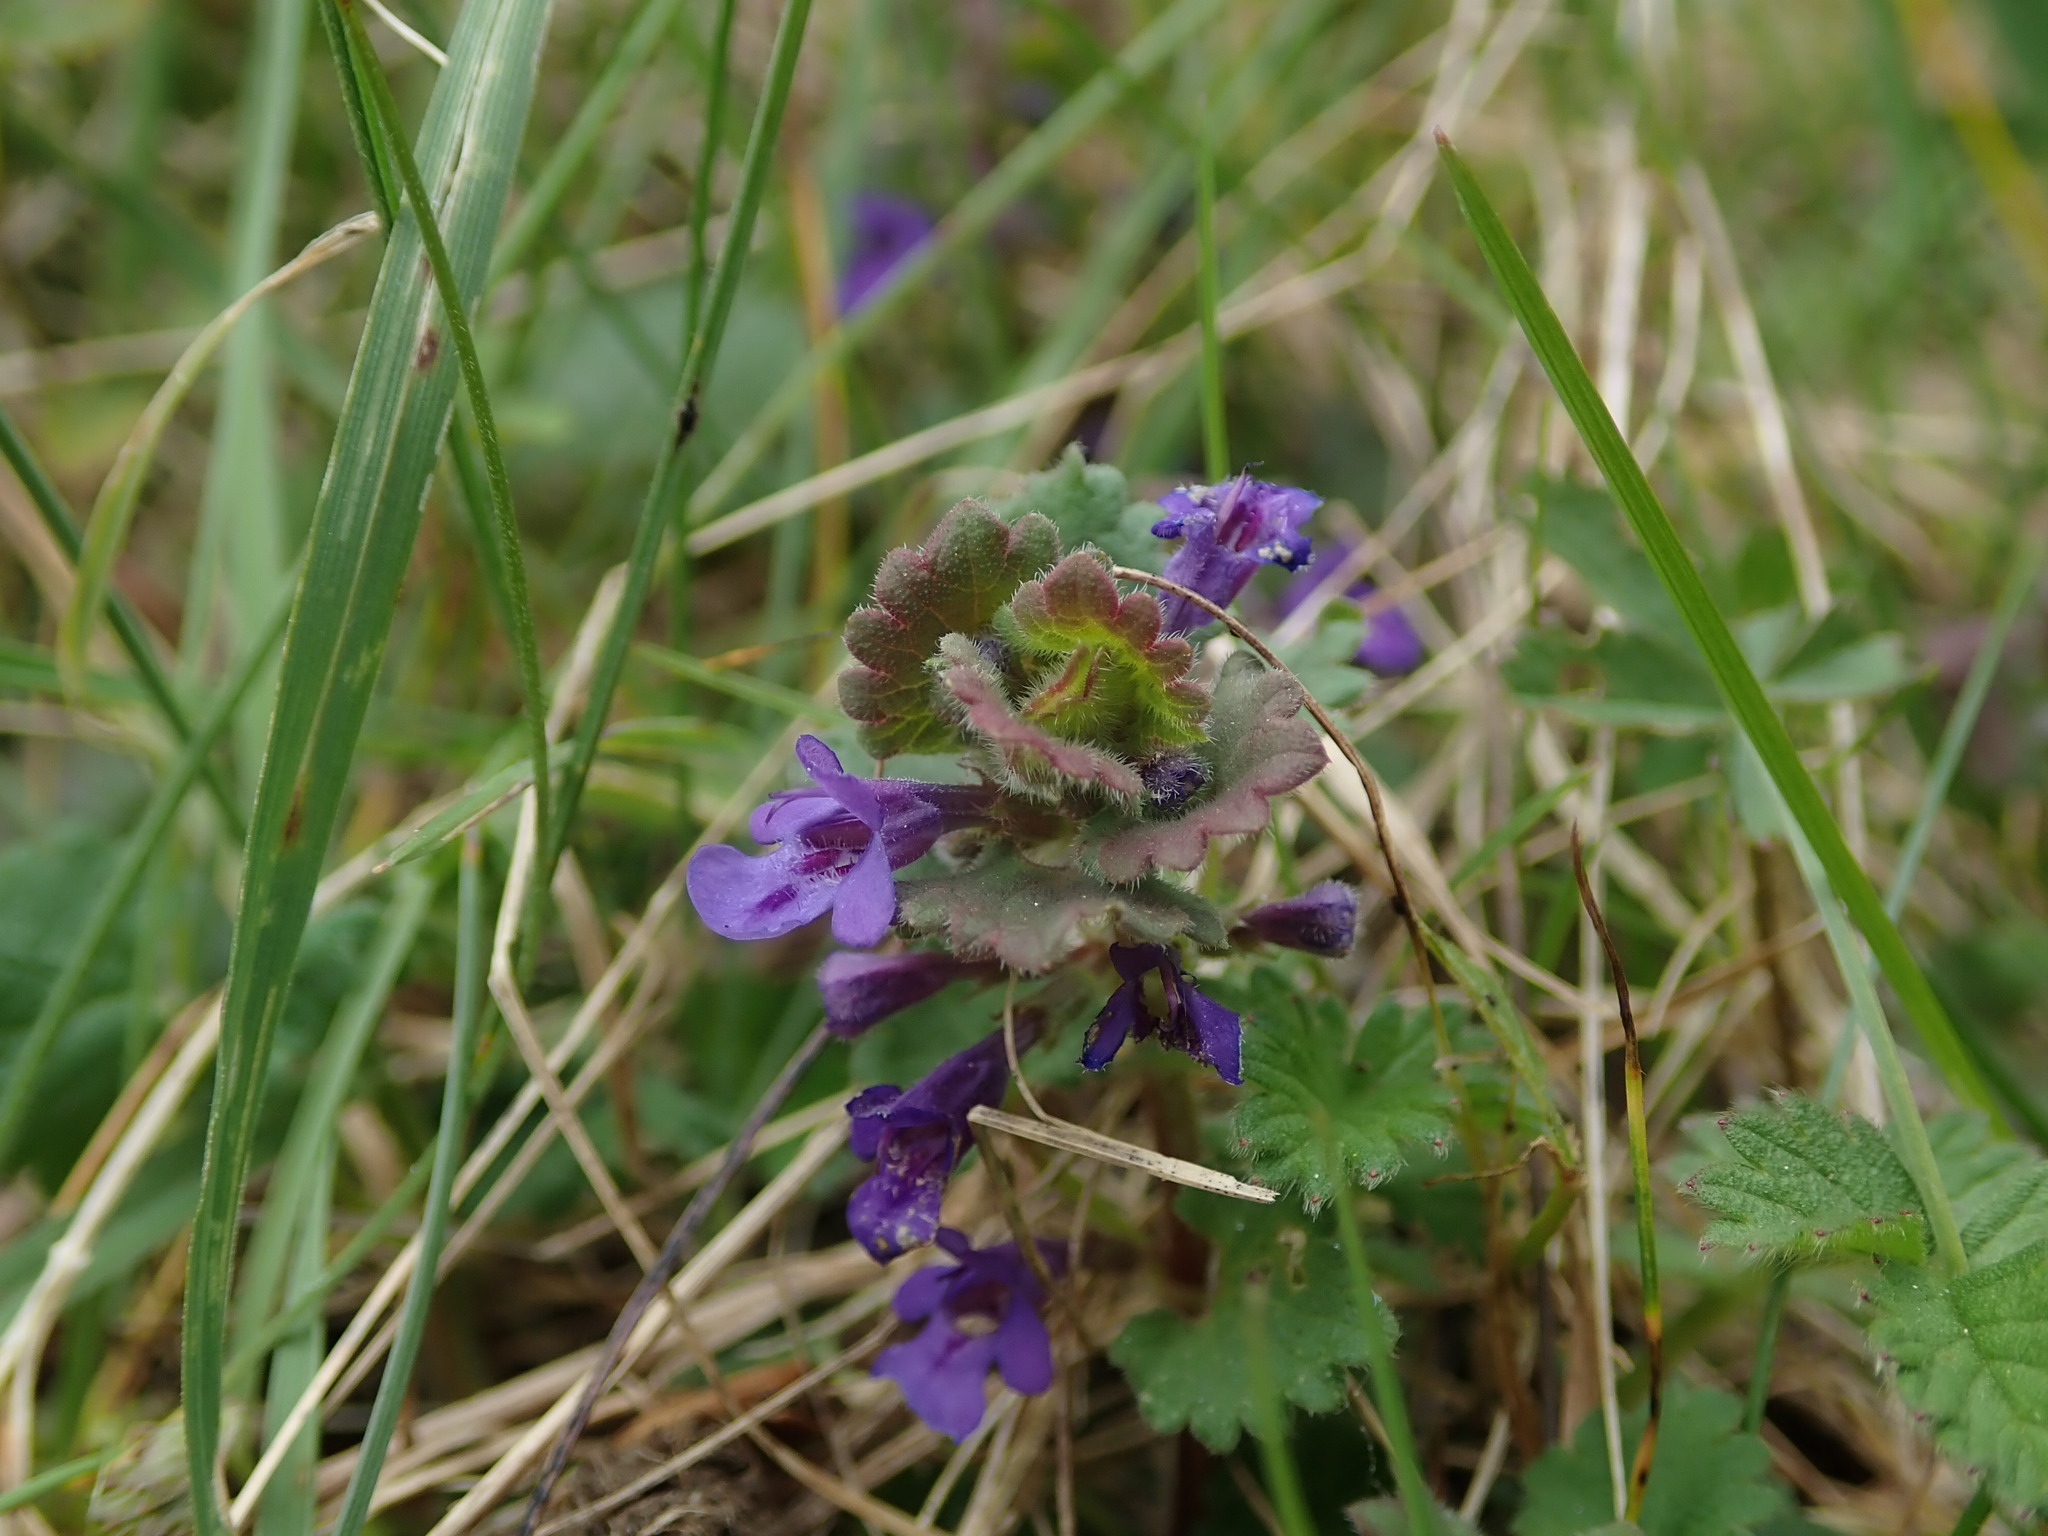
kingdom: Plantae
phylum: Tracheophyta
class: Magnoliopsida
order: Lamiales
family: Lamiaceae
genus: Glechoma
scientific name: Glechoma hederacea
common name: Ground ivy
